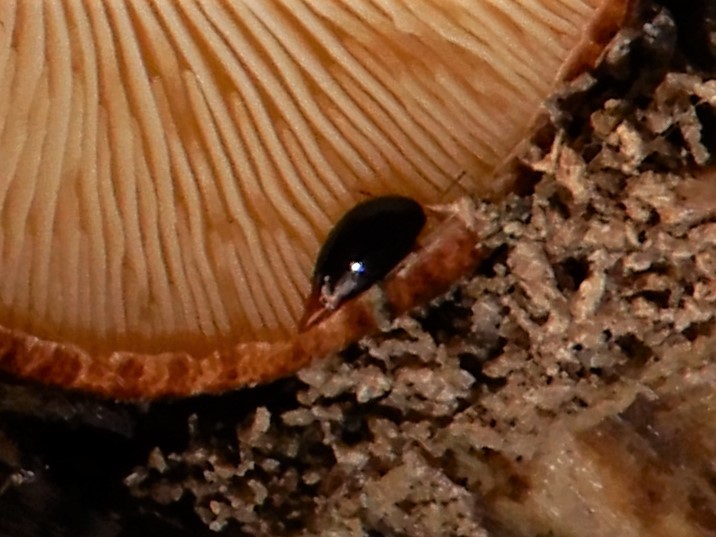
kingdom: Animalia
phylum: Arthropoda
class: Insecta
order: Coleoptera
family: Staphylinidae
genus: Brachynopus
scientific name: Brachynopus scutellaris
